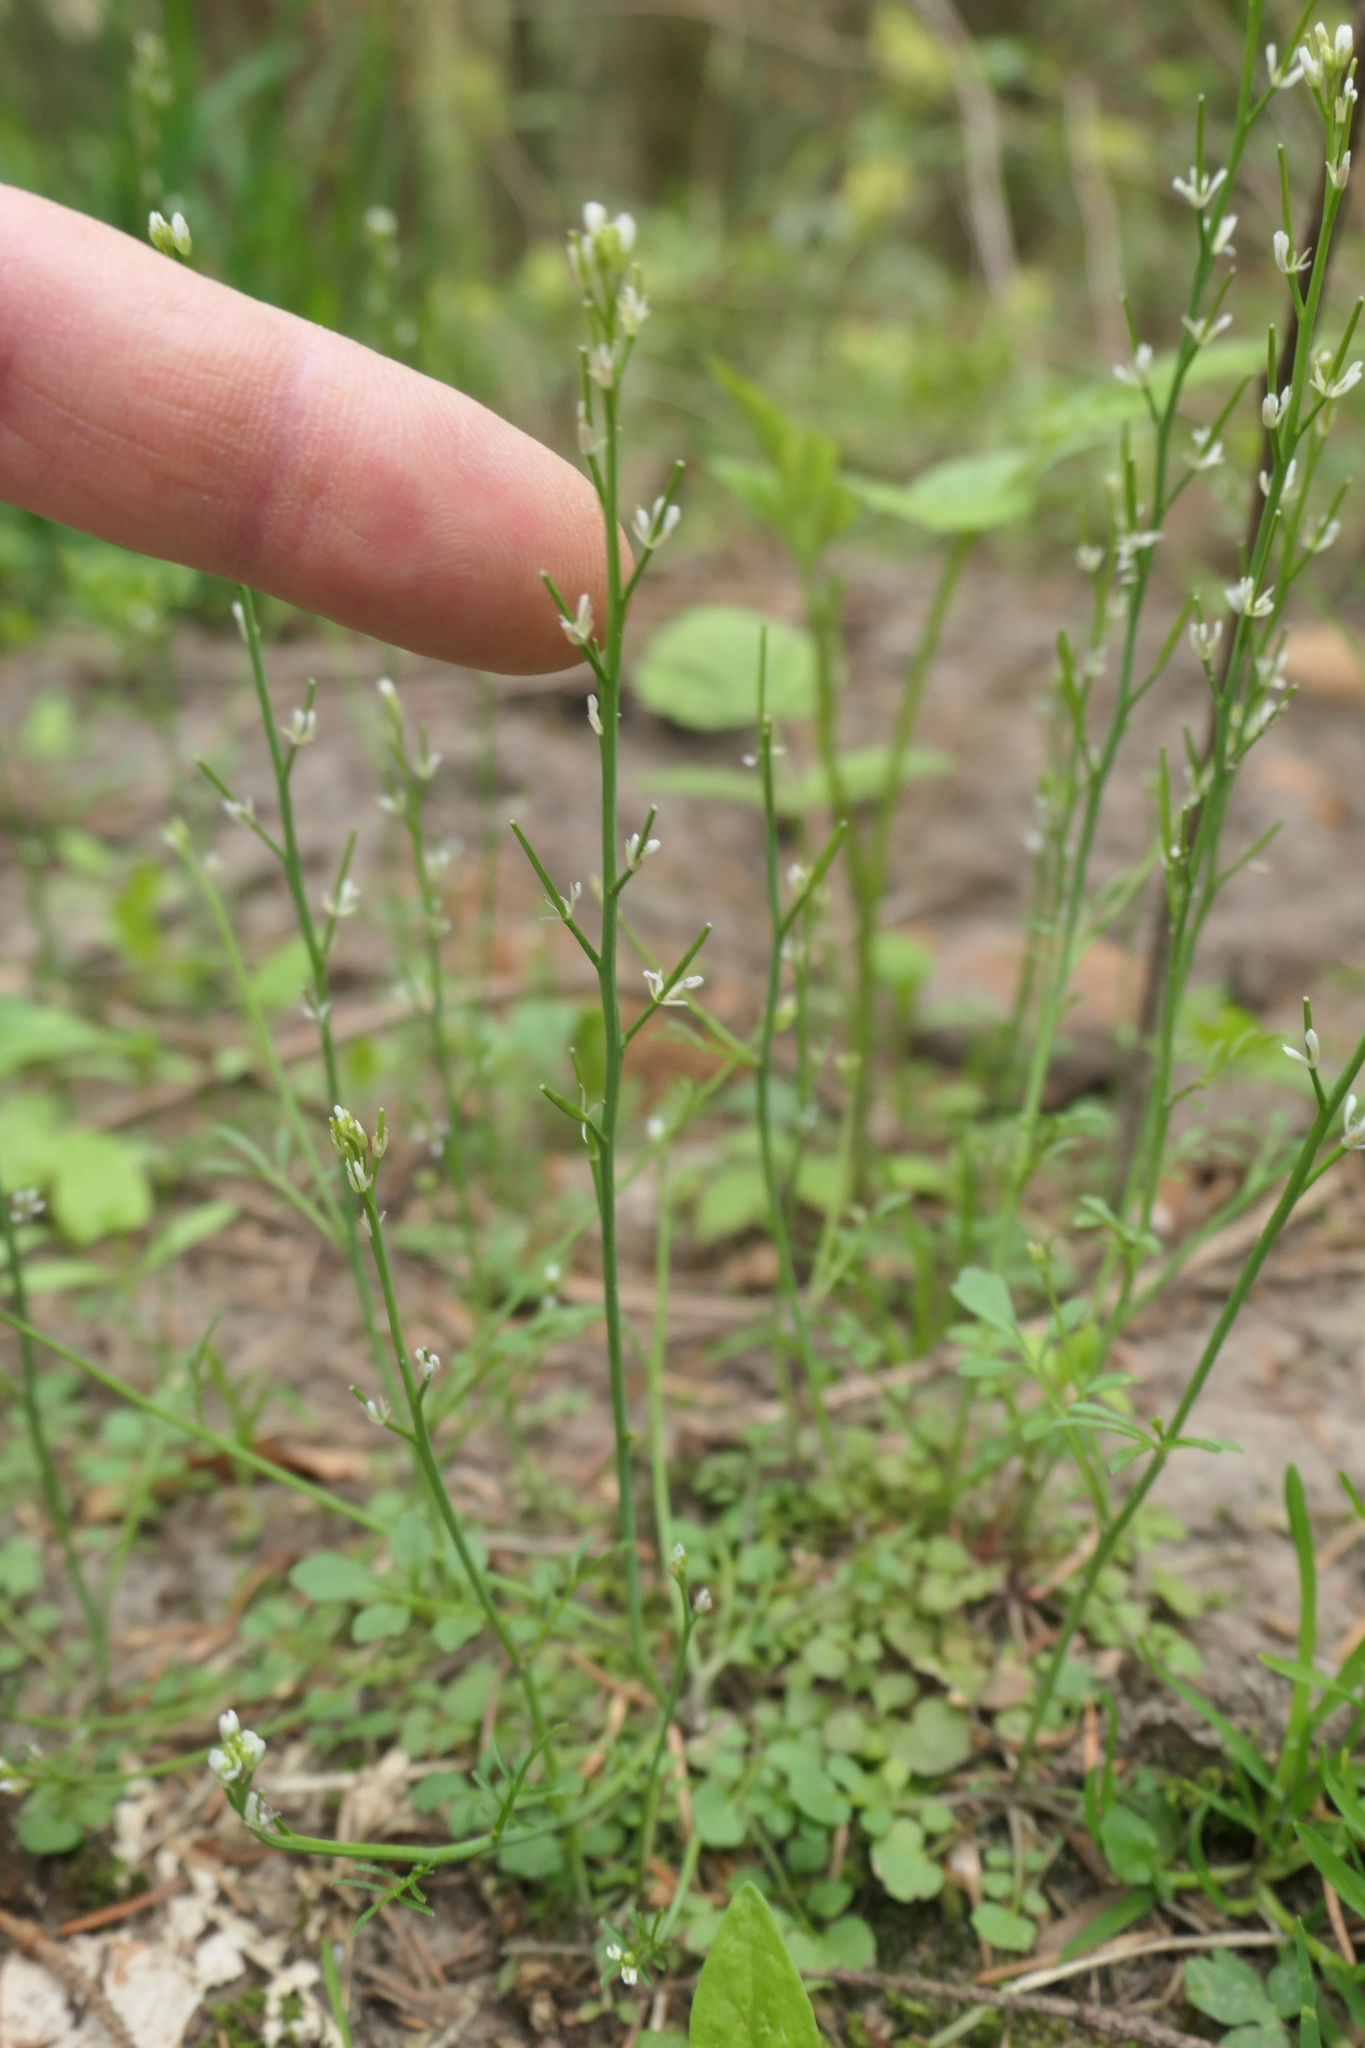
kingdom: Plantae
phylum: Tracheophyta
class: Magnoliopsida
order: Brassicales
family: Brassicaceae
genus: Cardamine
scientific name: Cardamine hirsuta
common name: Hairy bittercress
